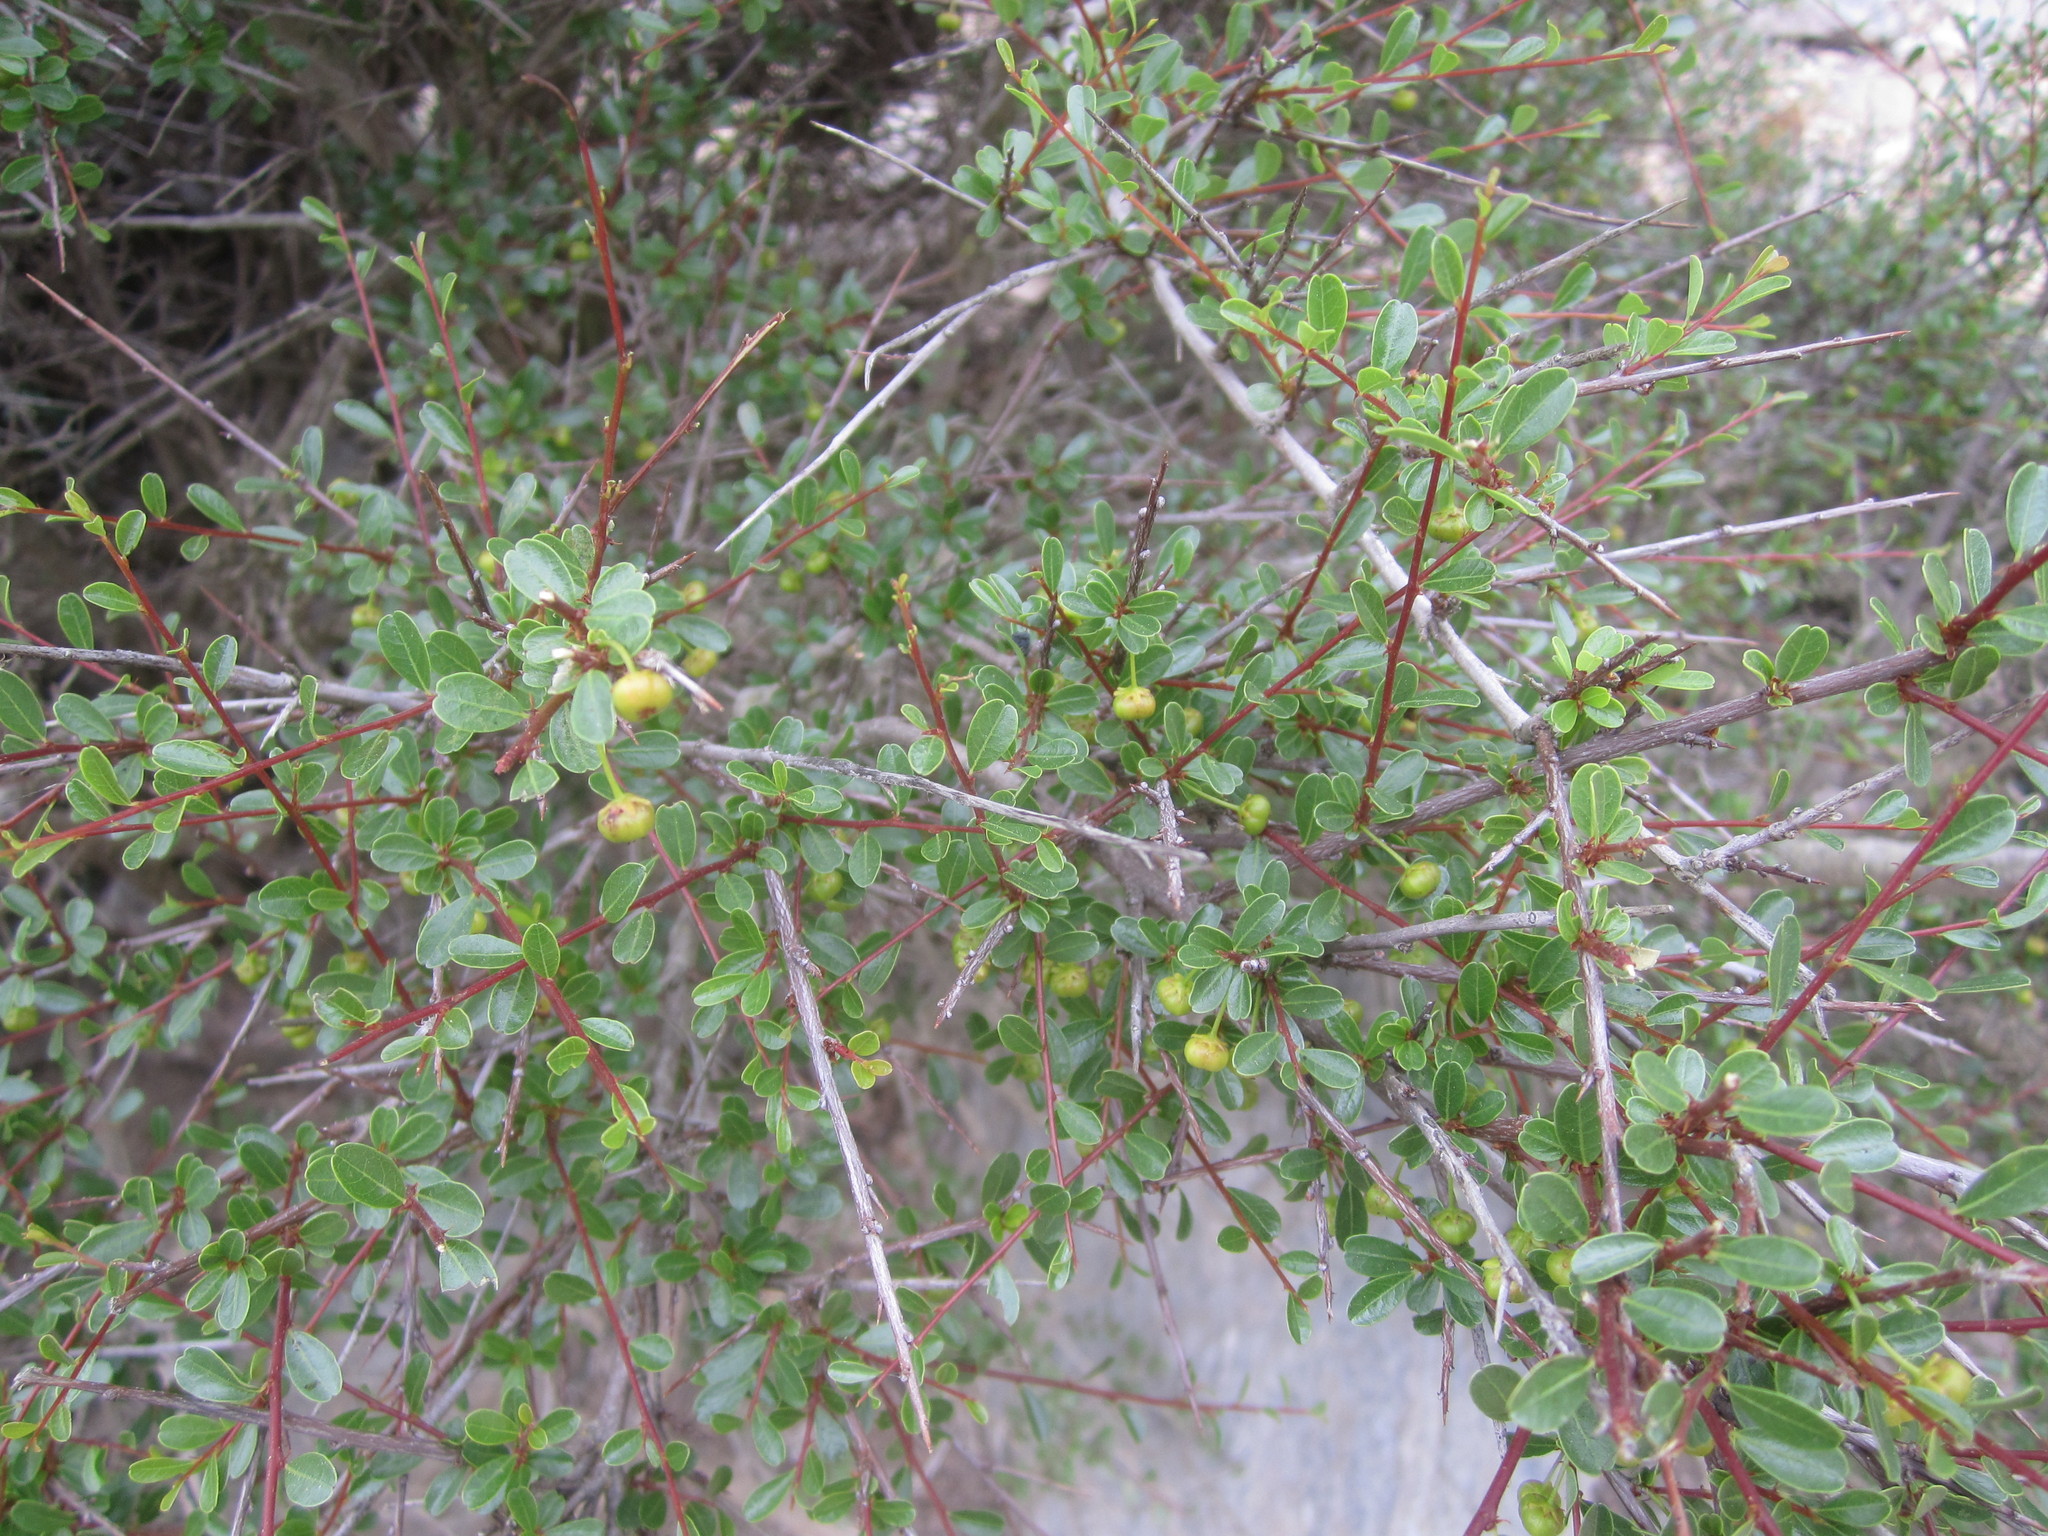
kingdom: Plantae
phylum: Tracheophyta
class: Magnoliopsida
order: Malpighiales
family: Phyllanthaceae
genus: Flueggea
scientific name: Flueggea tinctoria
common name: Tamujo
